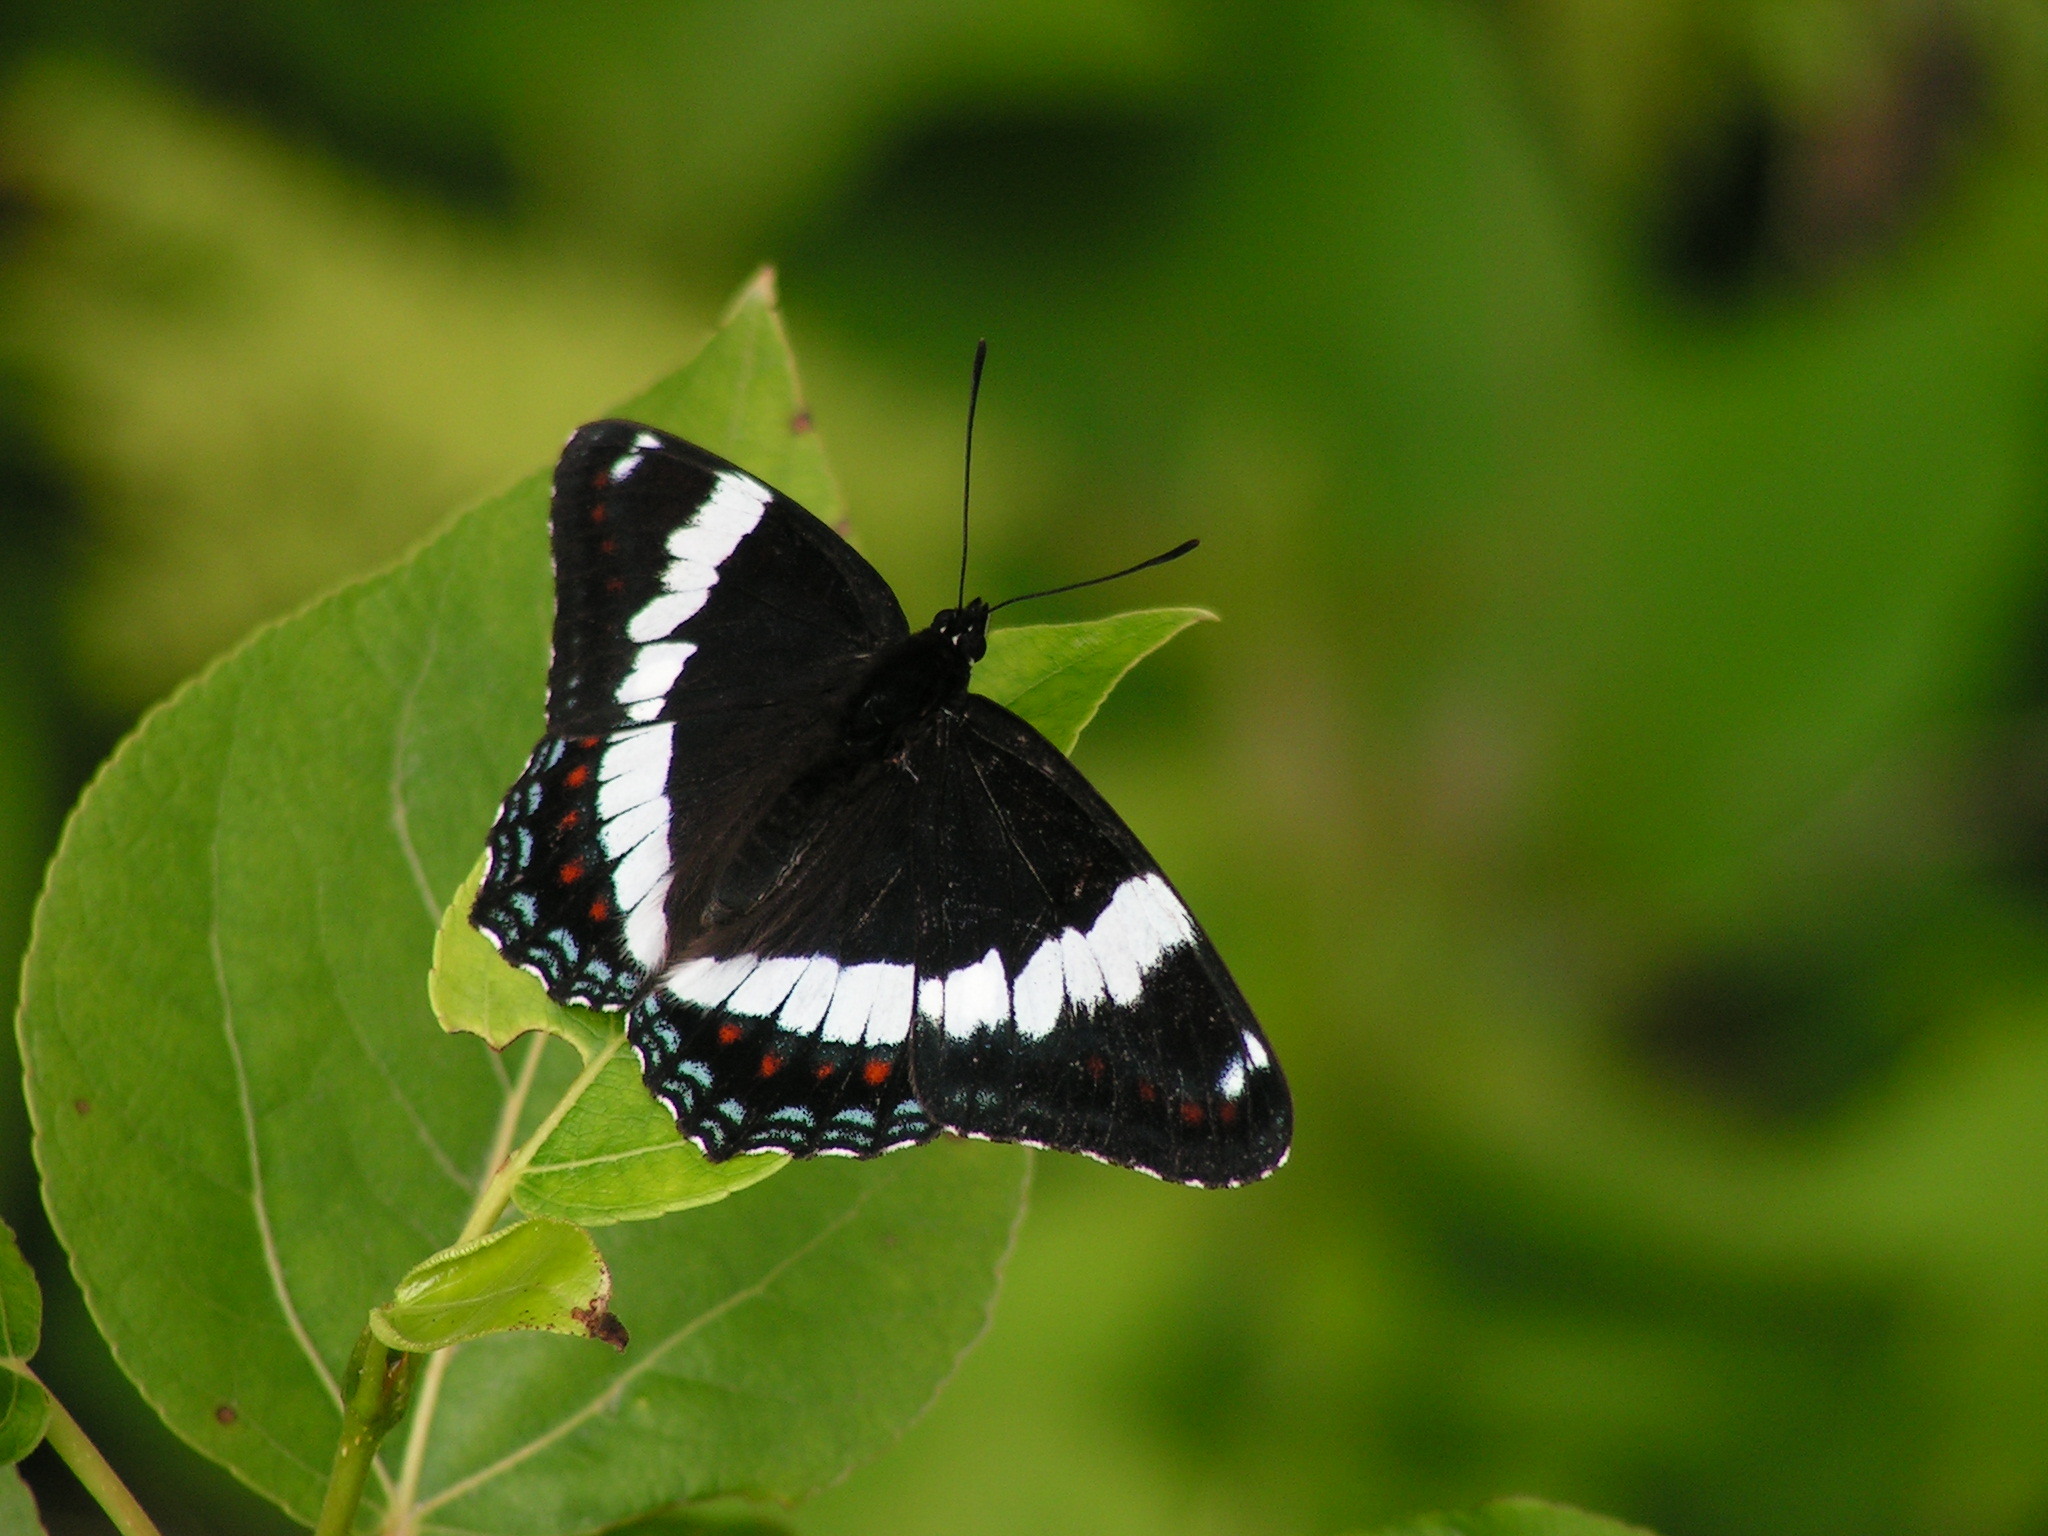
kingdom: Animalia
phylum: Arthropoda
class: Insecta
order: Lepidoptera
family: Nymphalidae
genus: Limenitis
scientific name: Limenitis arthemis
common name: Red-spotted admiral
